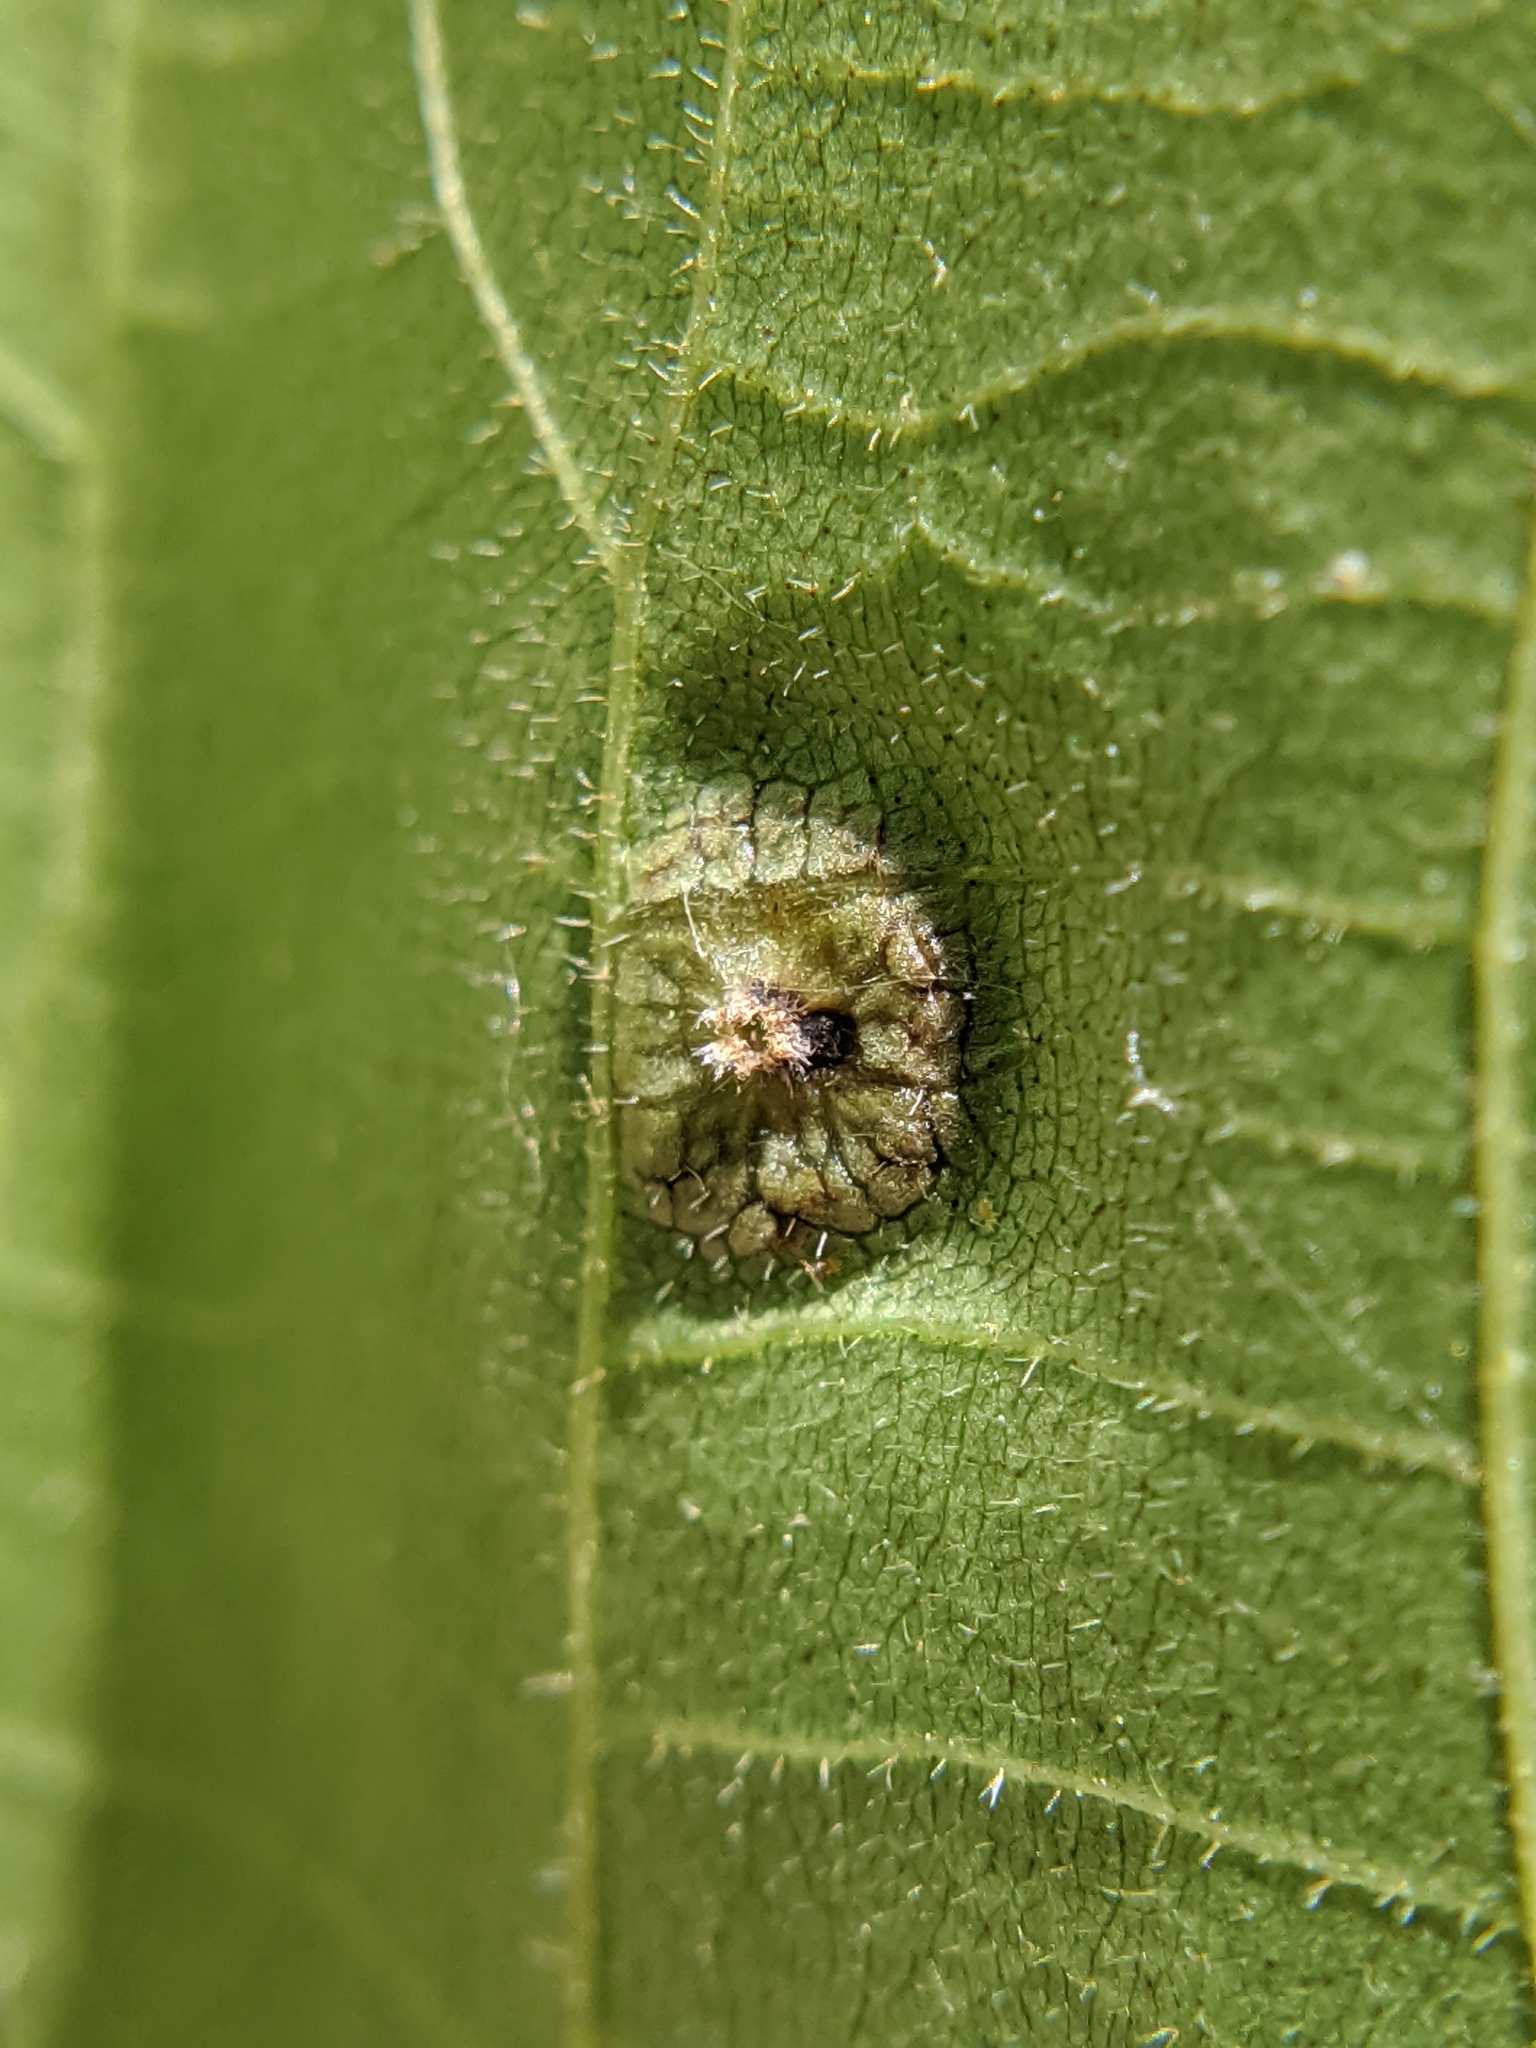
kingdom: Animalia
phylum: Arthropoda
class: Insecta
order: Hemiptera
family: Phylloxeridae
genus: Phylloxera
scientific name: Phylloxera foveola
